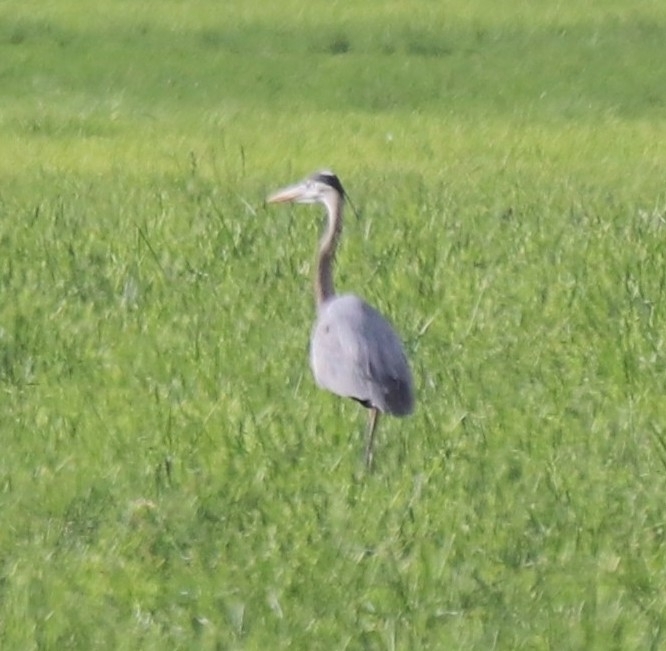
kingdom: Animalia
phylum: Chordata
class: Aves
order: Pelecaniformes
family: Ardeidae
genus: Ardea
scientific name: Ardea herodias
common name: Great blue heron
